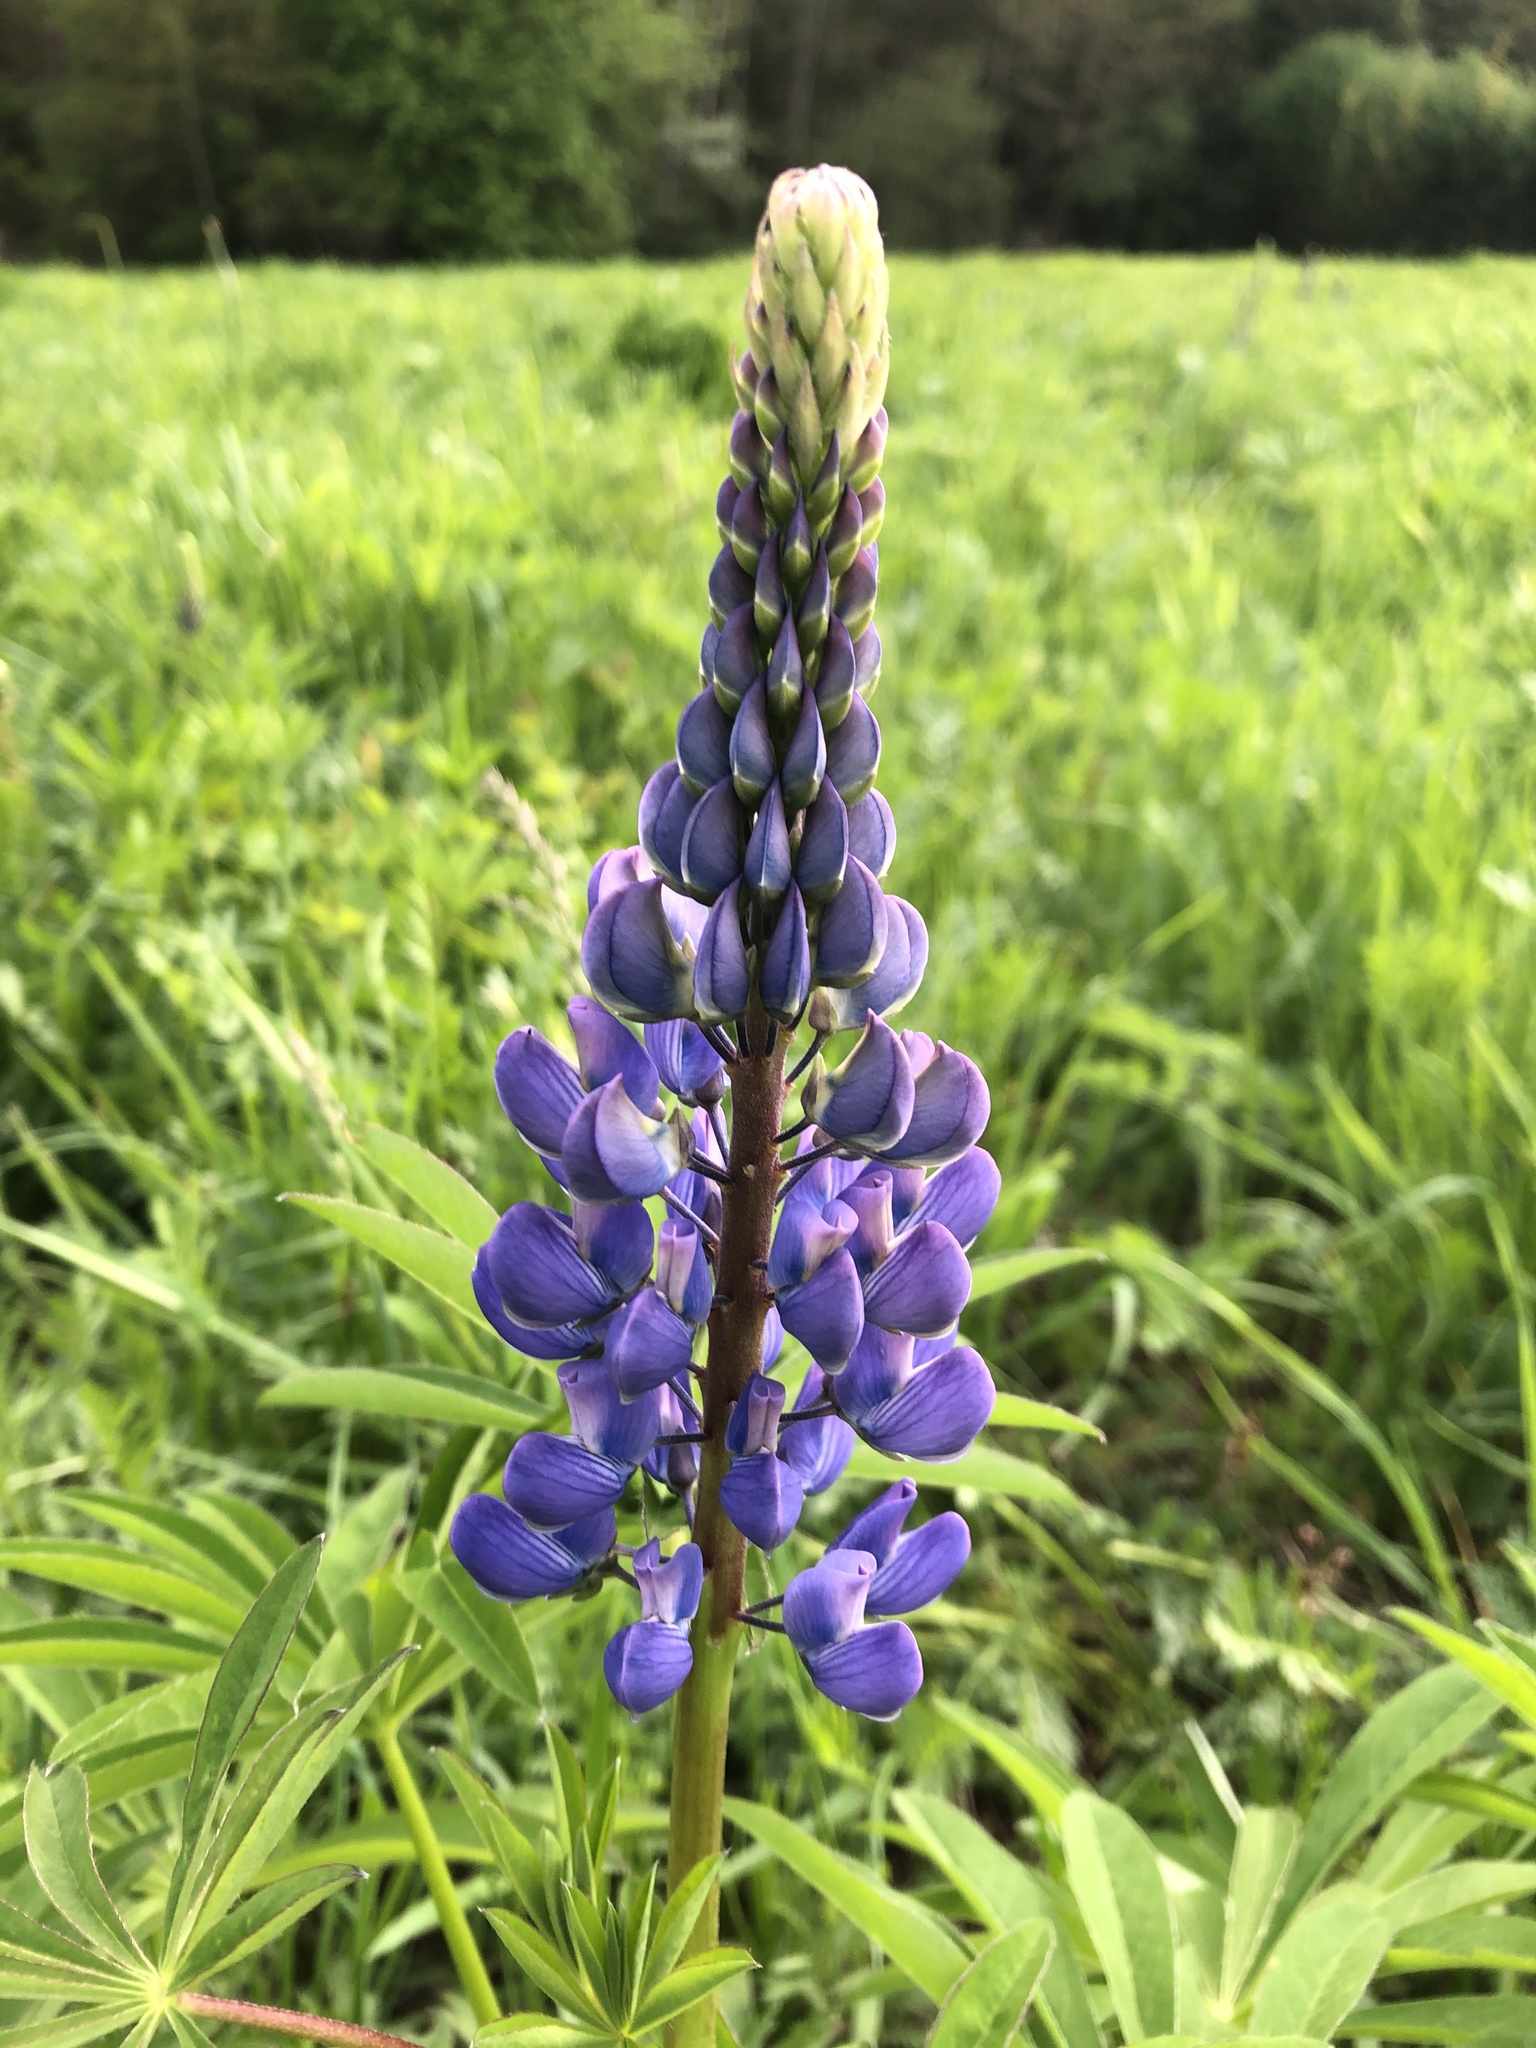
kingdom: Plantae
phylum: Tracheophyta
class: Magnoliopsida
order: Fabales
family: Fabaceae
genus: Lupinus
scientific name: Lupinus polyphyllus
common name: Garden lupin
